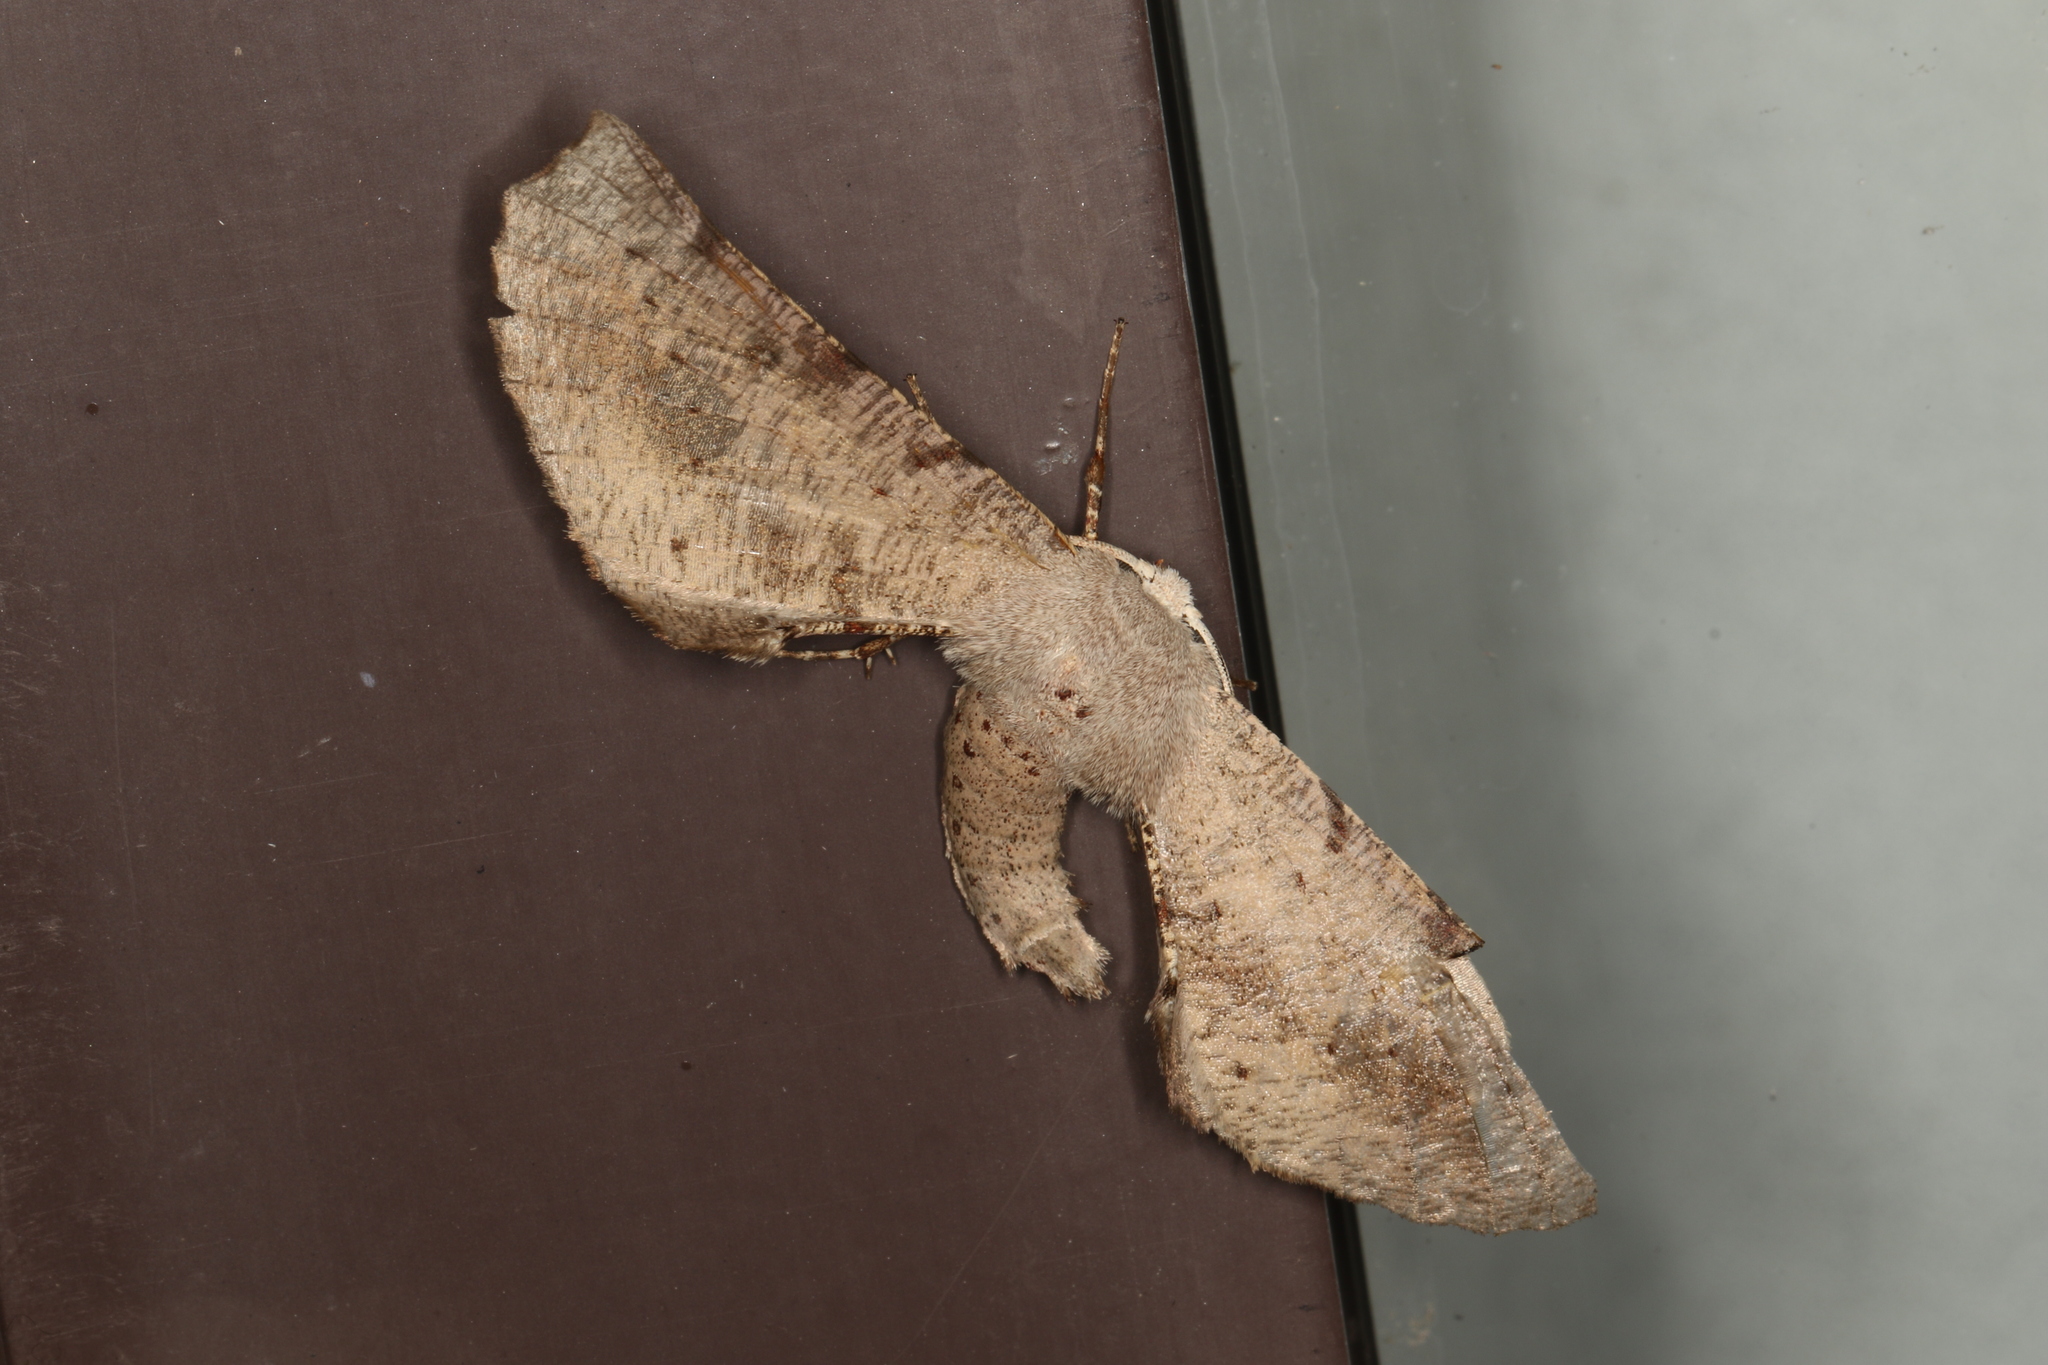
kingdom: Animalia
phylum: Arthropoda
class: Insecta
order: Lepidoptera
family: Geometridae
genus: Circopetes
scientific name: Circopetes obtusata
